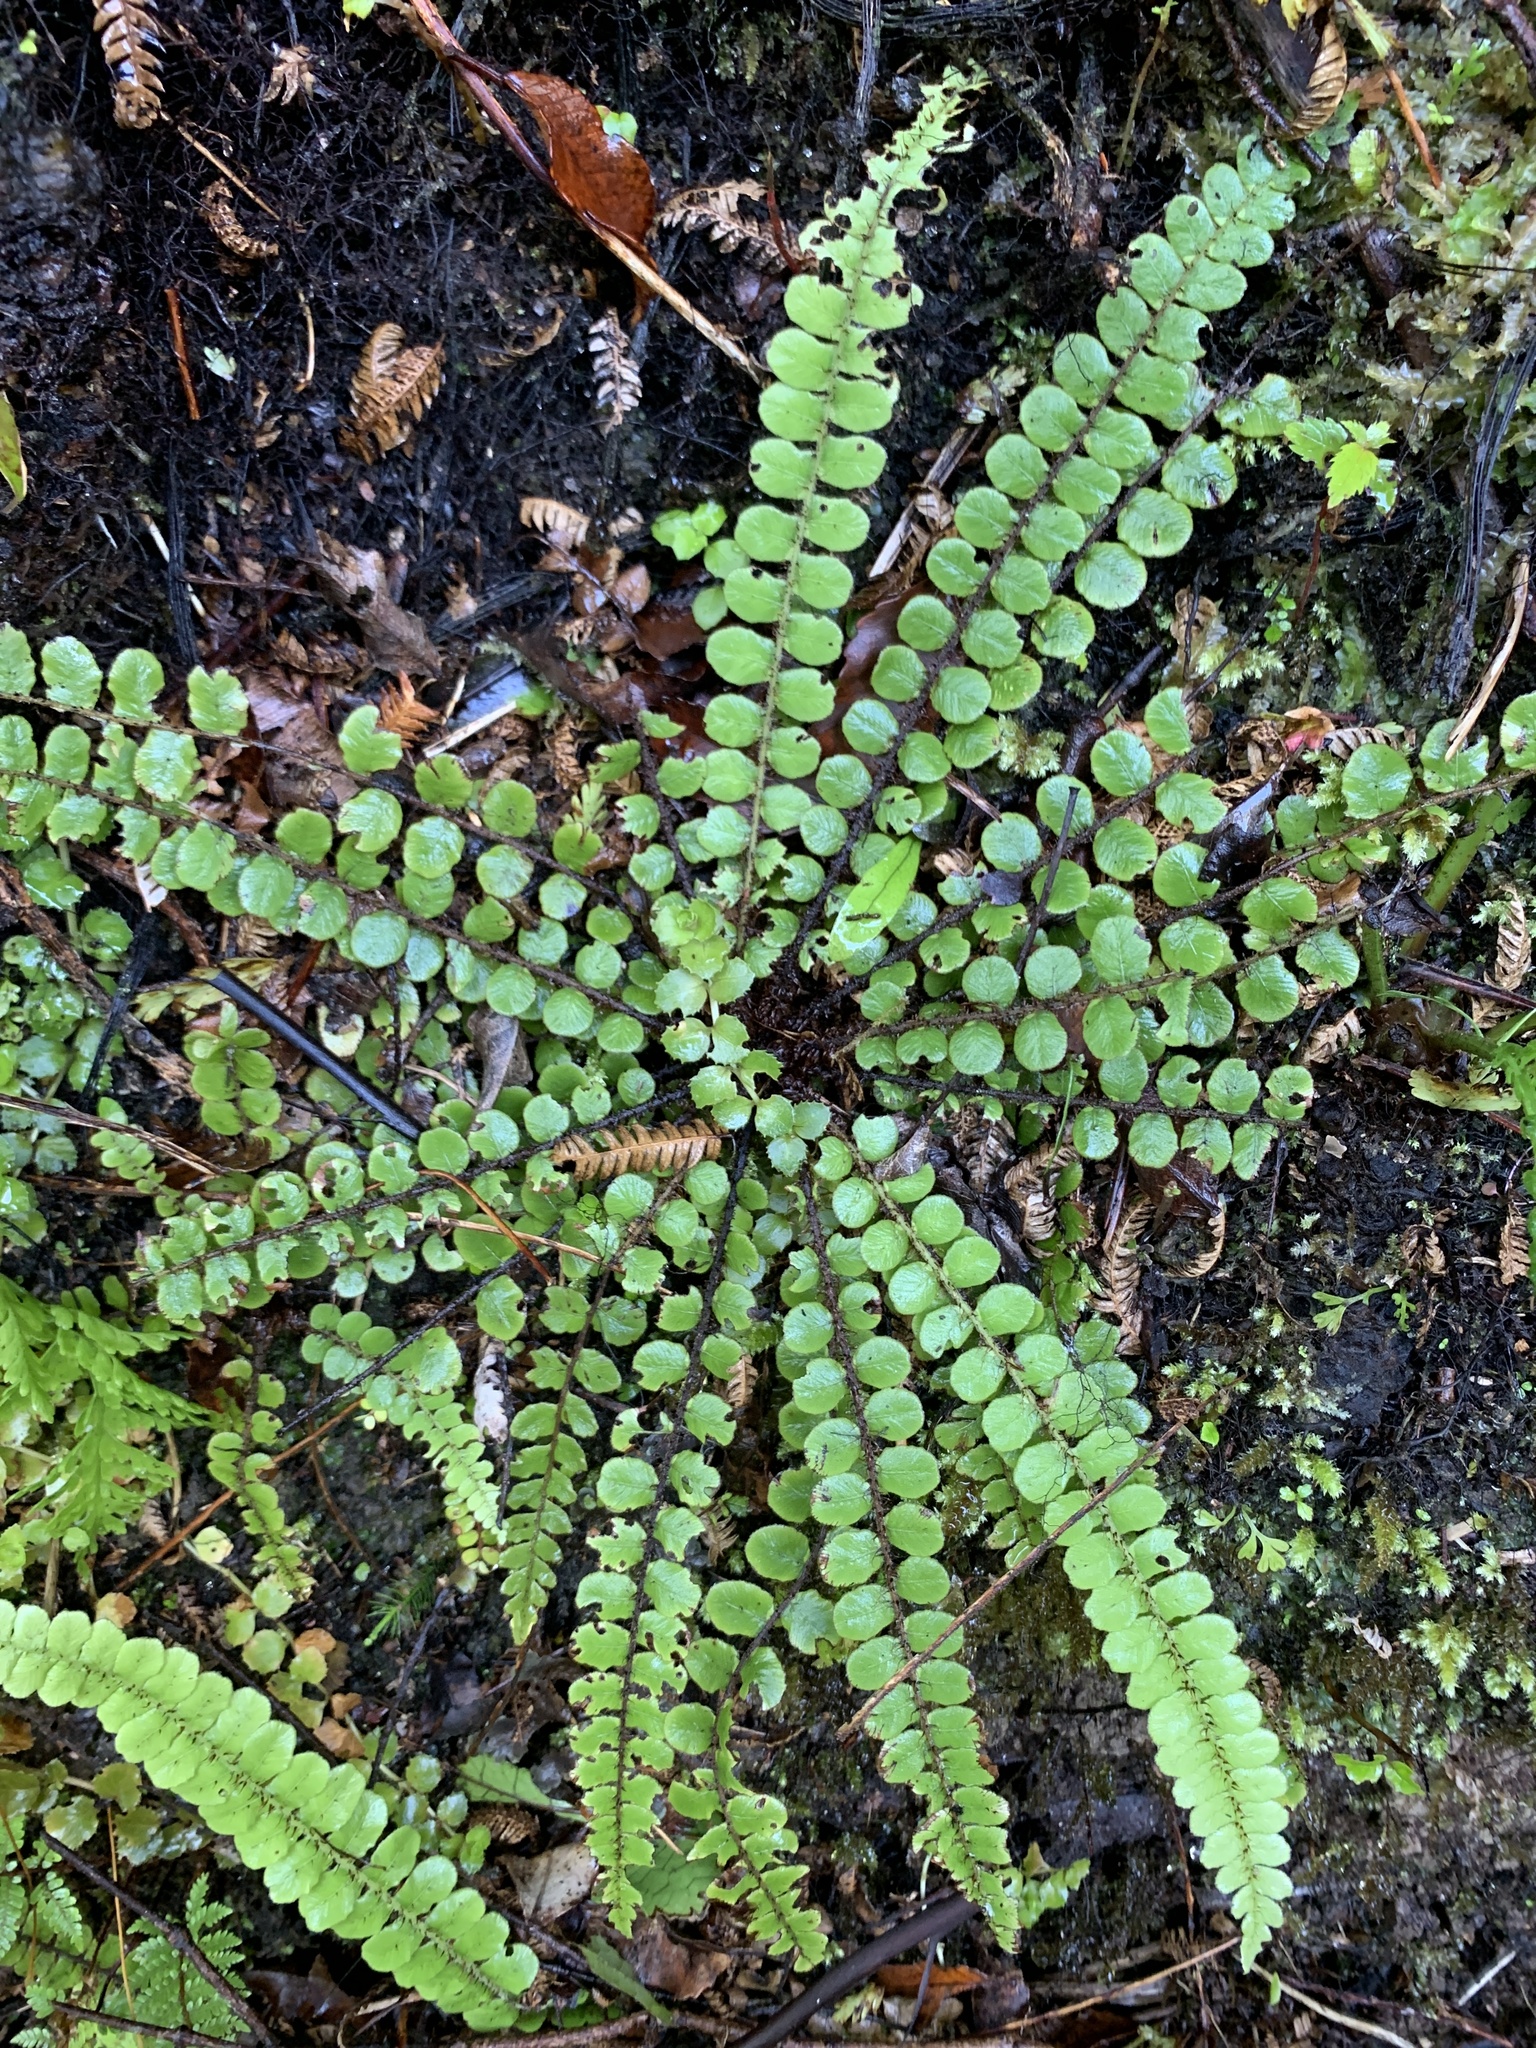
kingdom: Plantae
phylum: Tracheophyta
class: Polypodiopsida
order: Polypodiales
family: Blechnaceae
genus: Cranfillia
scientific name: Cranfillia fluviatilis
